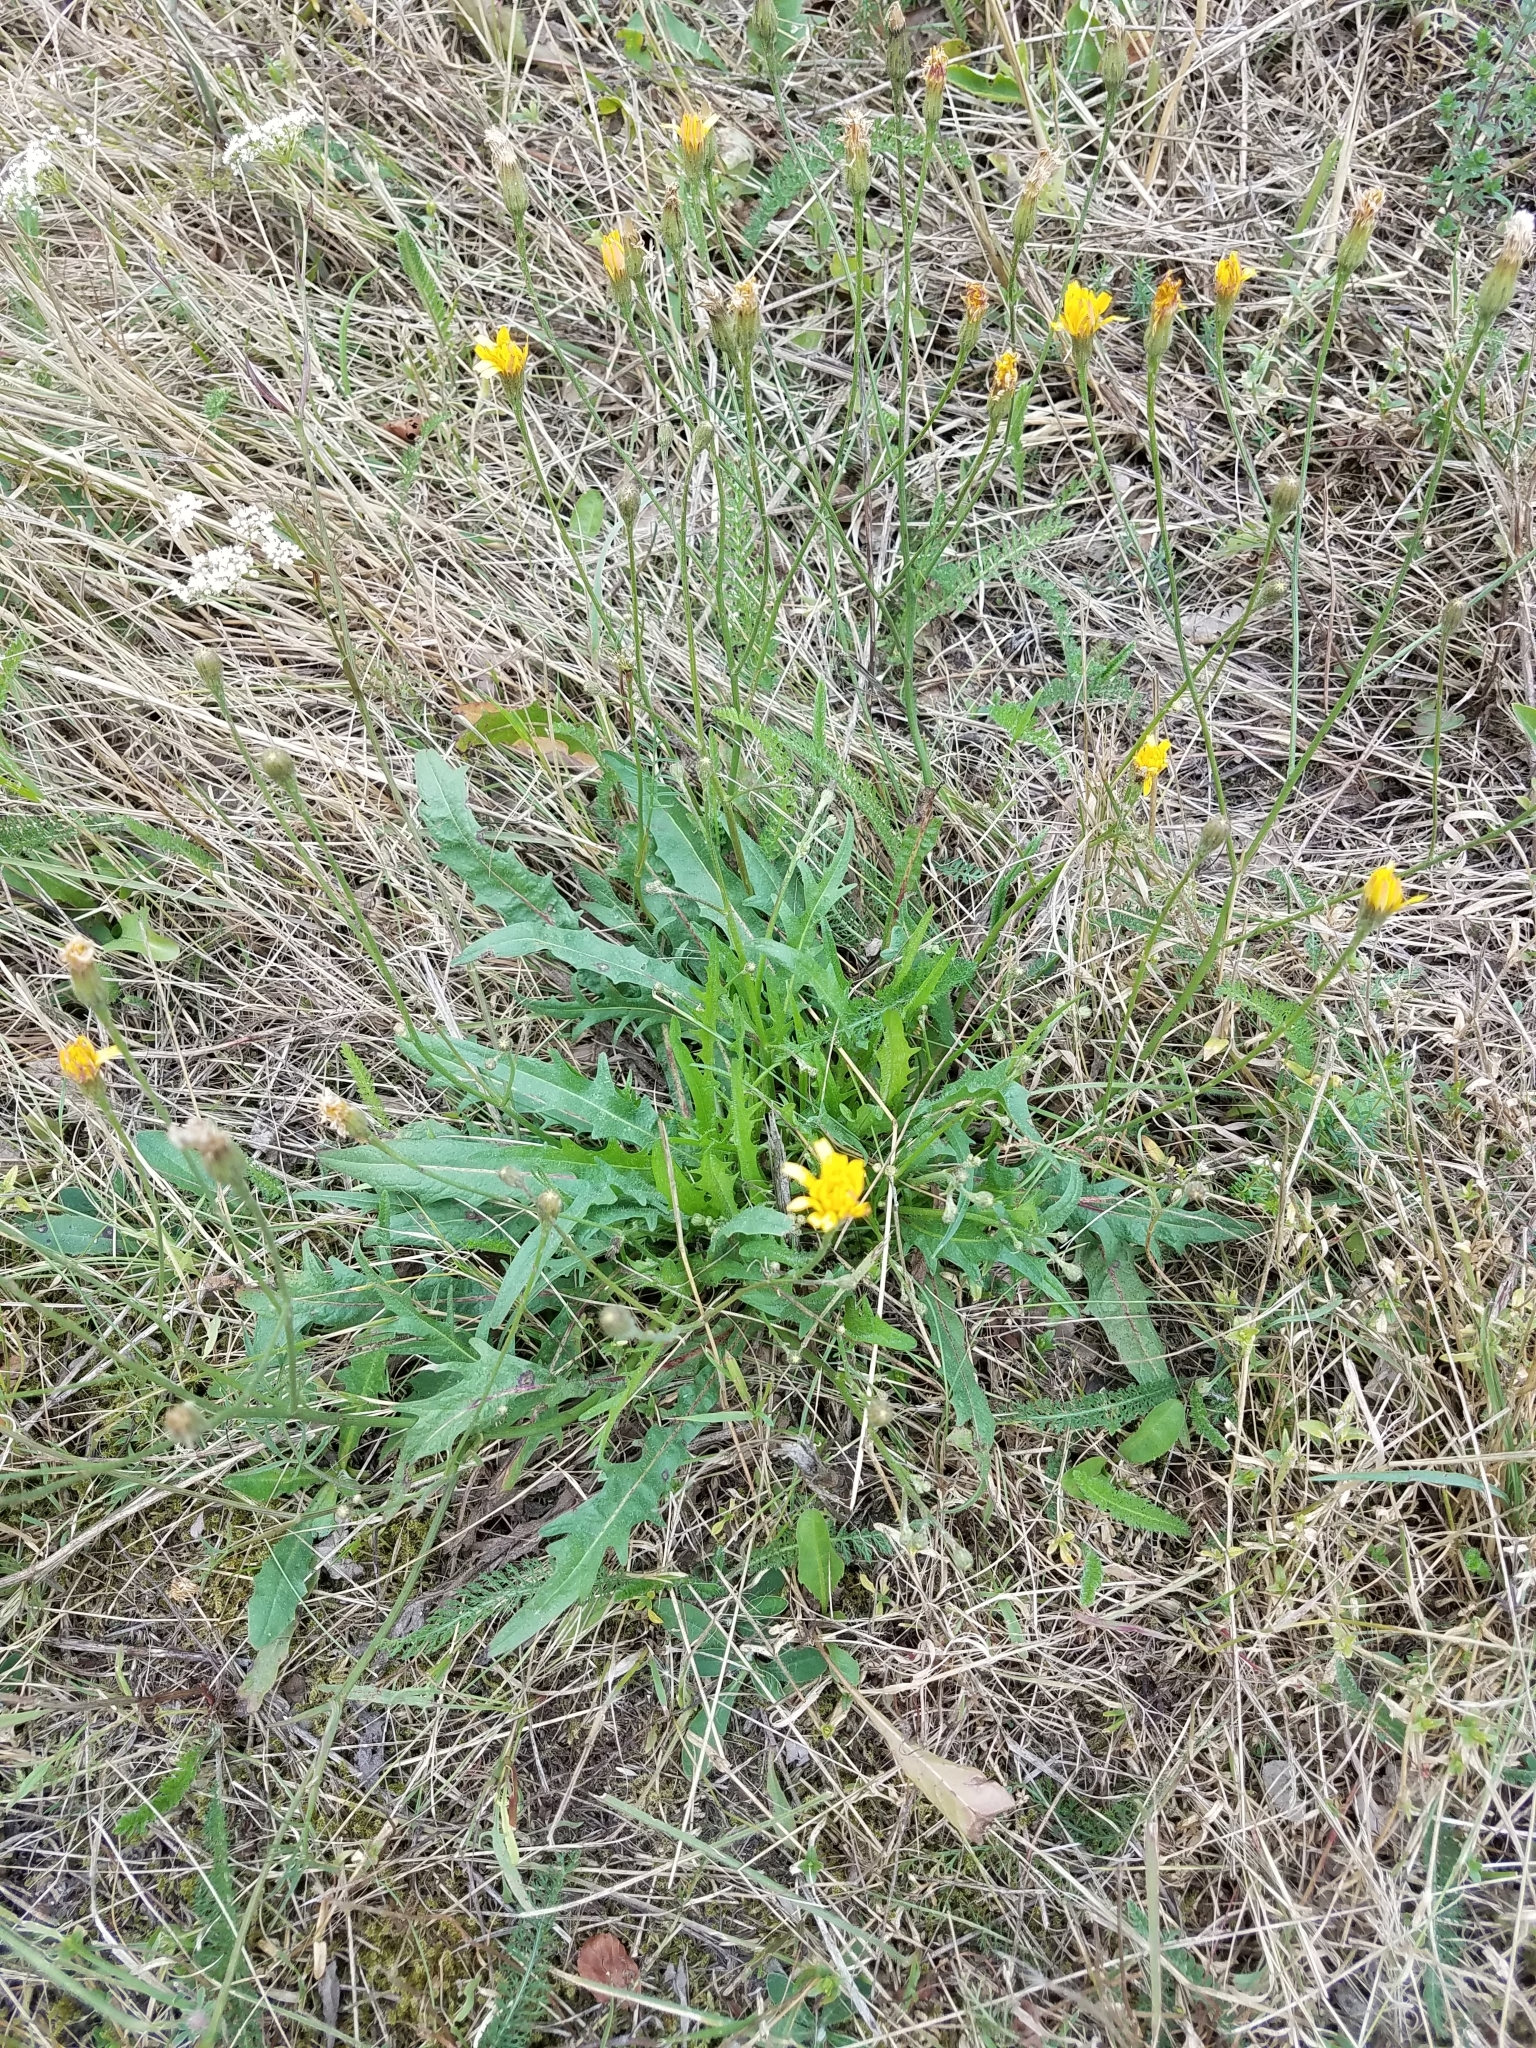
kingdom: Plantae
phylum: Tracheophyta
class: Magnoliopsida
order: Asterales
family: Asteraceae
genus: Scorzoneroides
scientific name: Scorzoneroides autumnalis
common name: Autumn hawkbit
